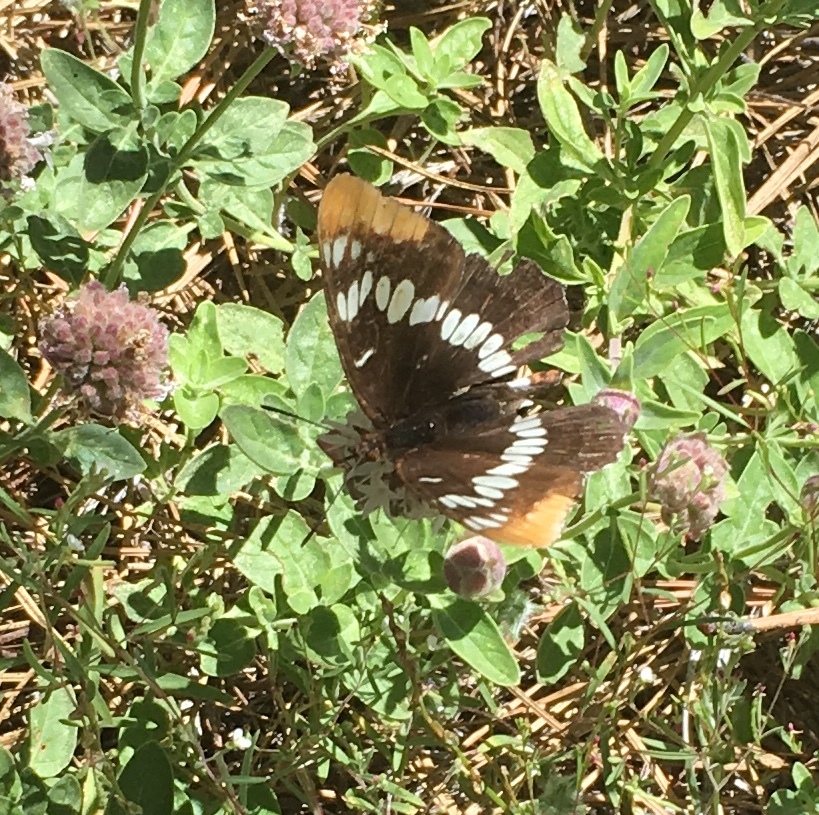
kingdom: Animalia
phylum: Arthropoda
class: Insecta
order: Lepidoptera
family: Nymphalidae
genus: Limenitis
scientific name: Limenitis lorquini
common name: Lorquin's admiral
